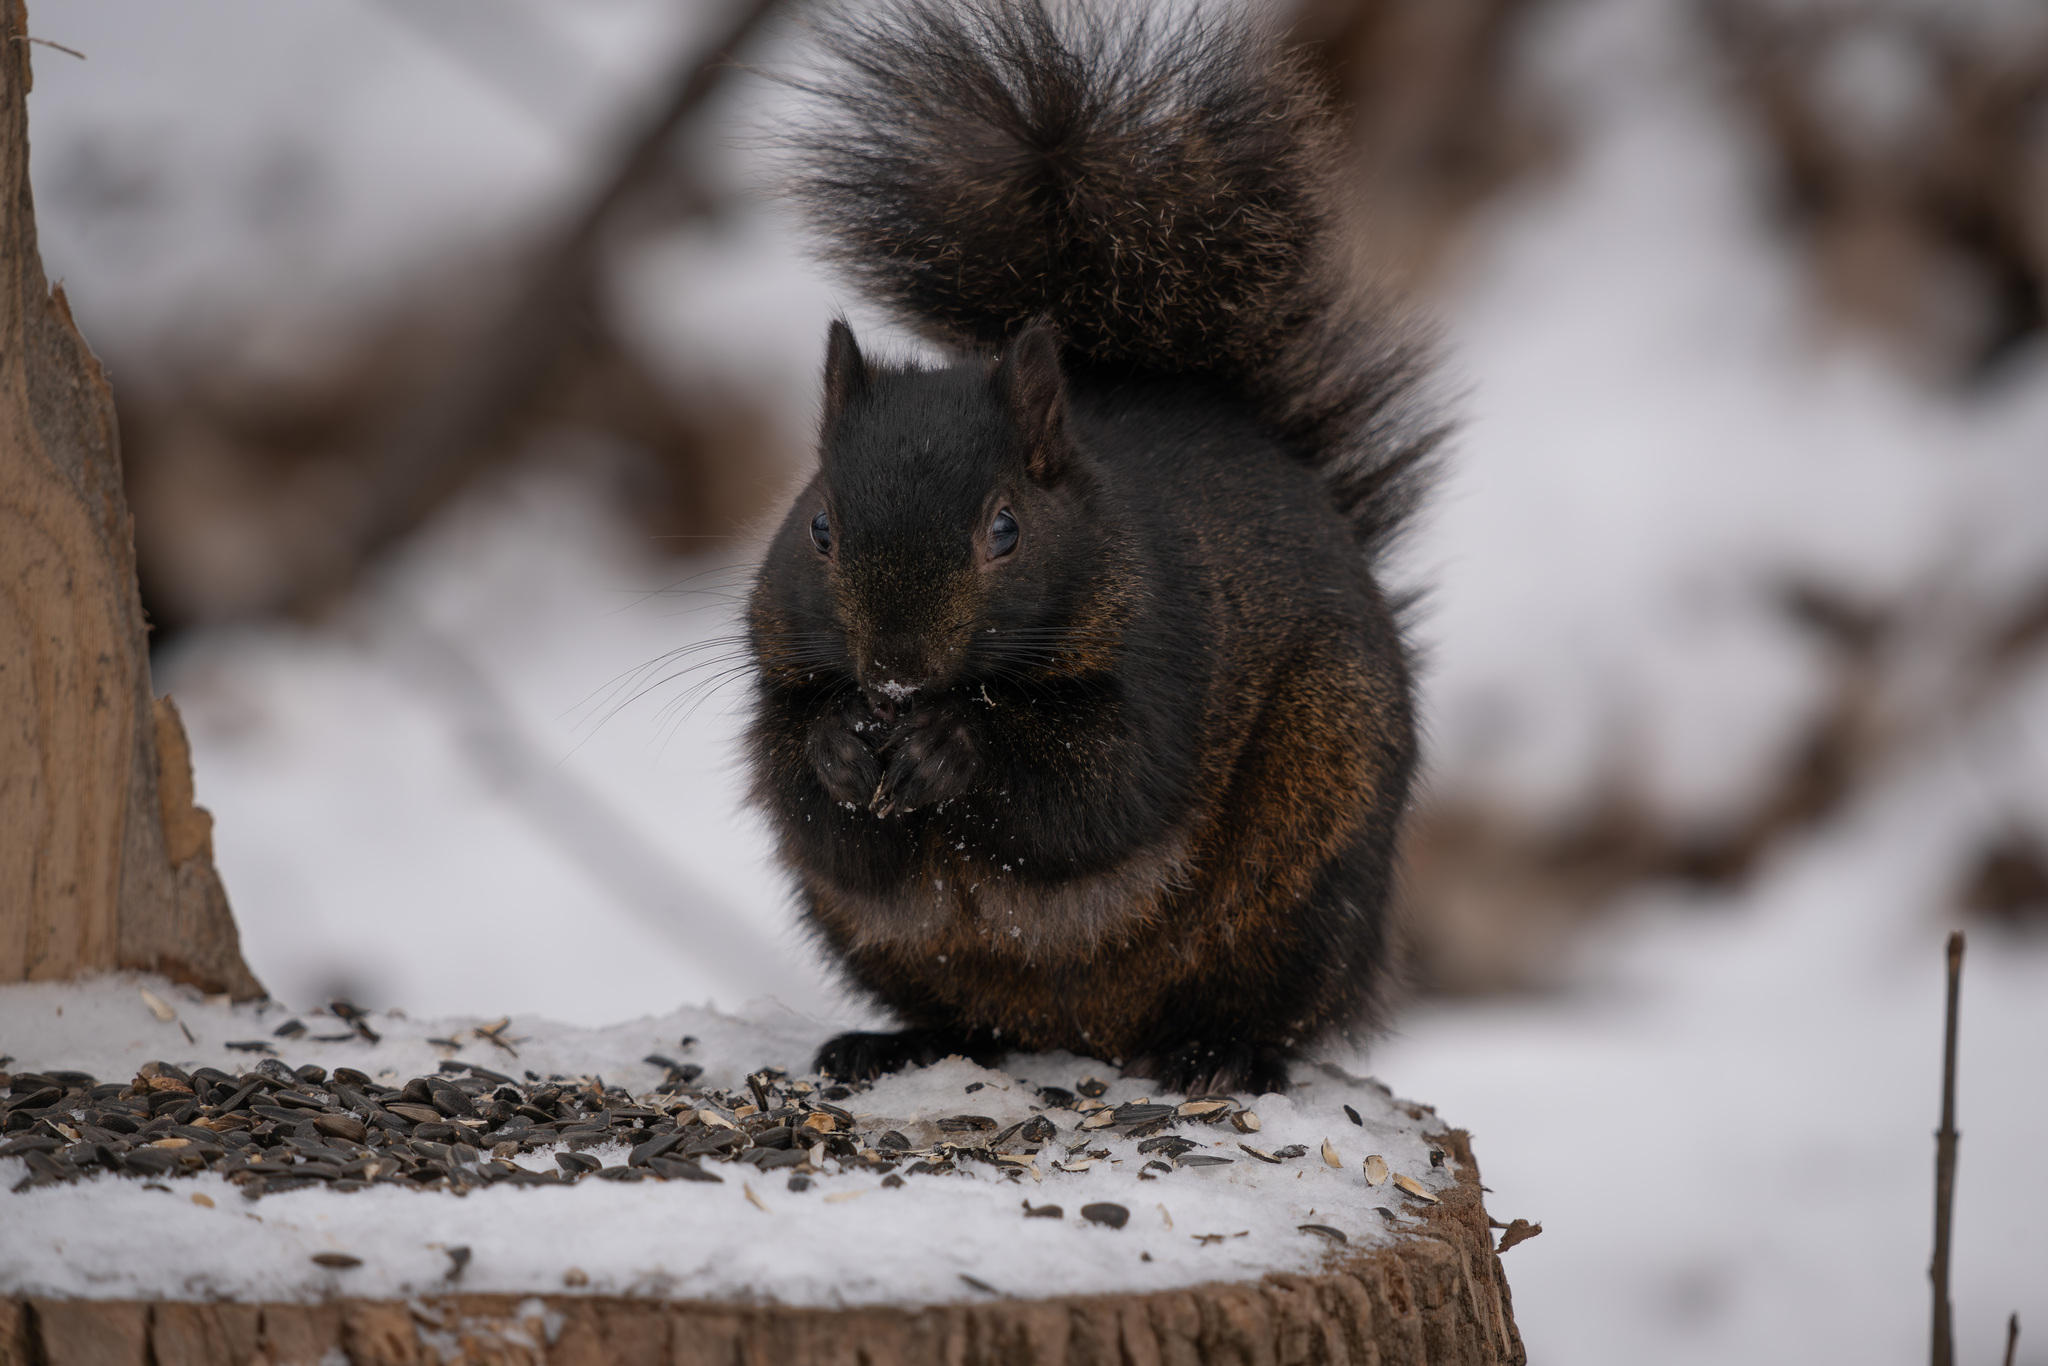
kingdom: Animalia
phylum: Chordata
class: Mammalia
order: Rodentia
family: Sciuridae
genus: Sciurus
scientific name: Sciurus carolinensis
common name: Eastern gray squirrel
